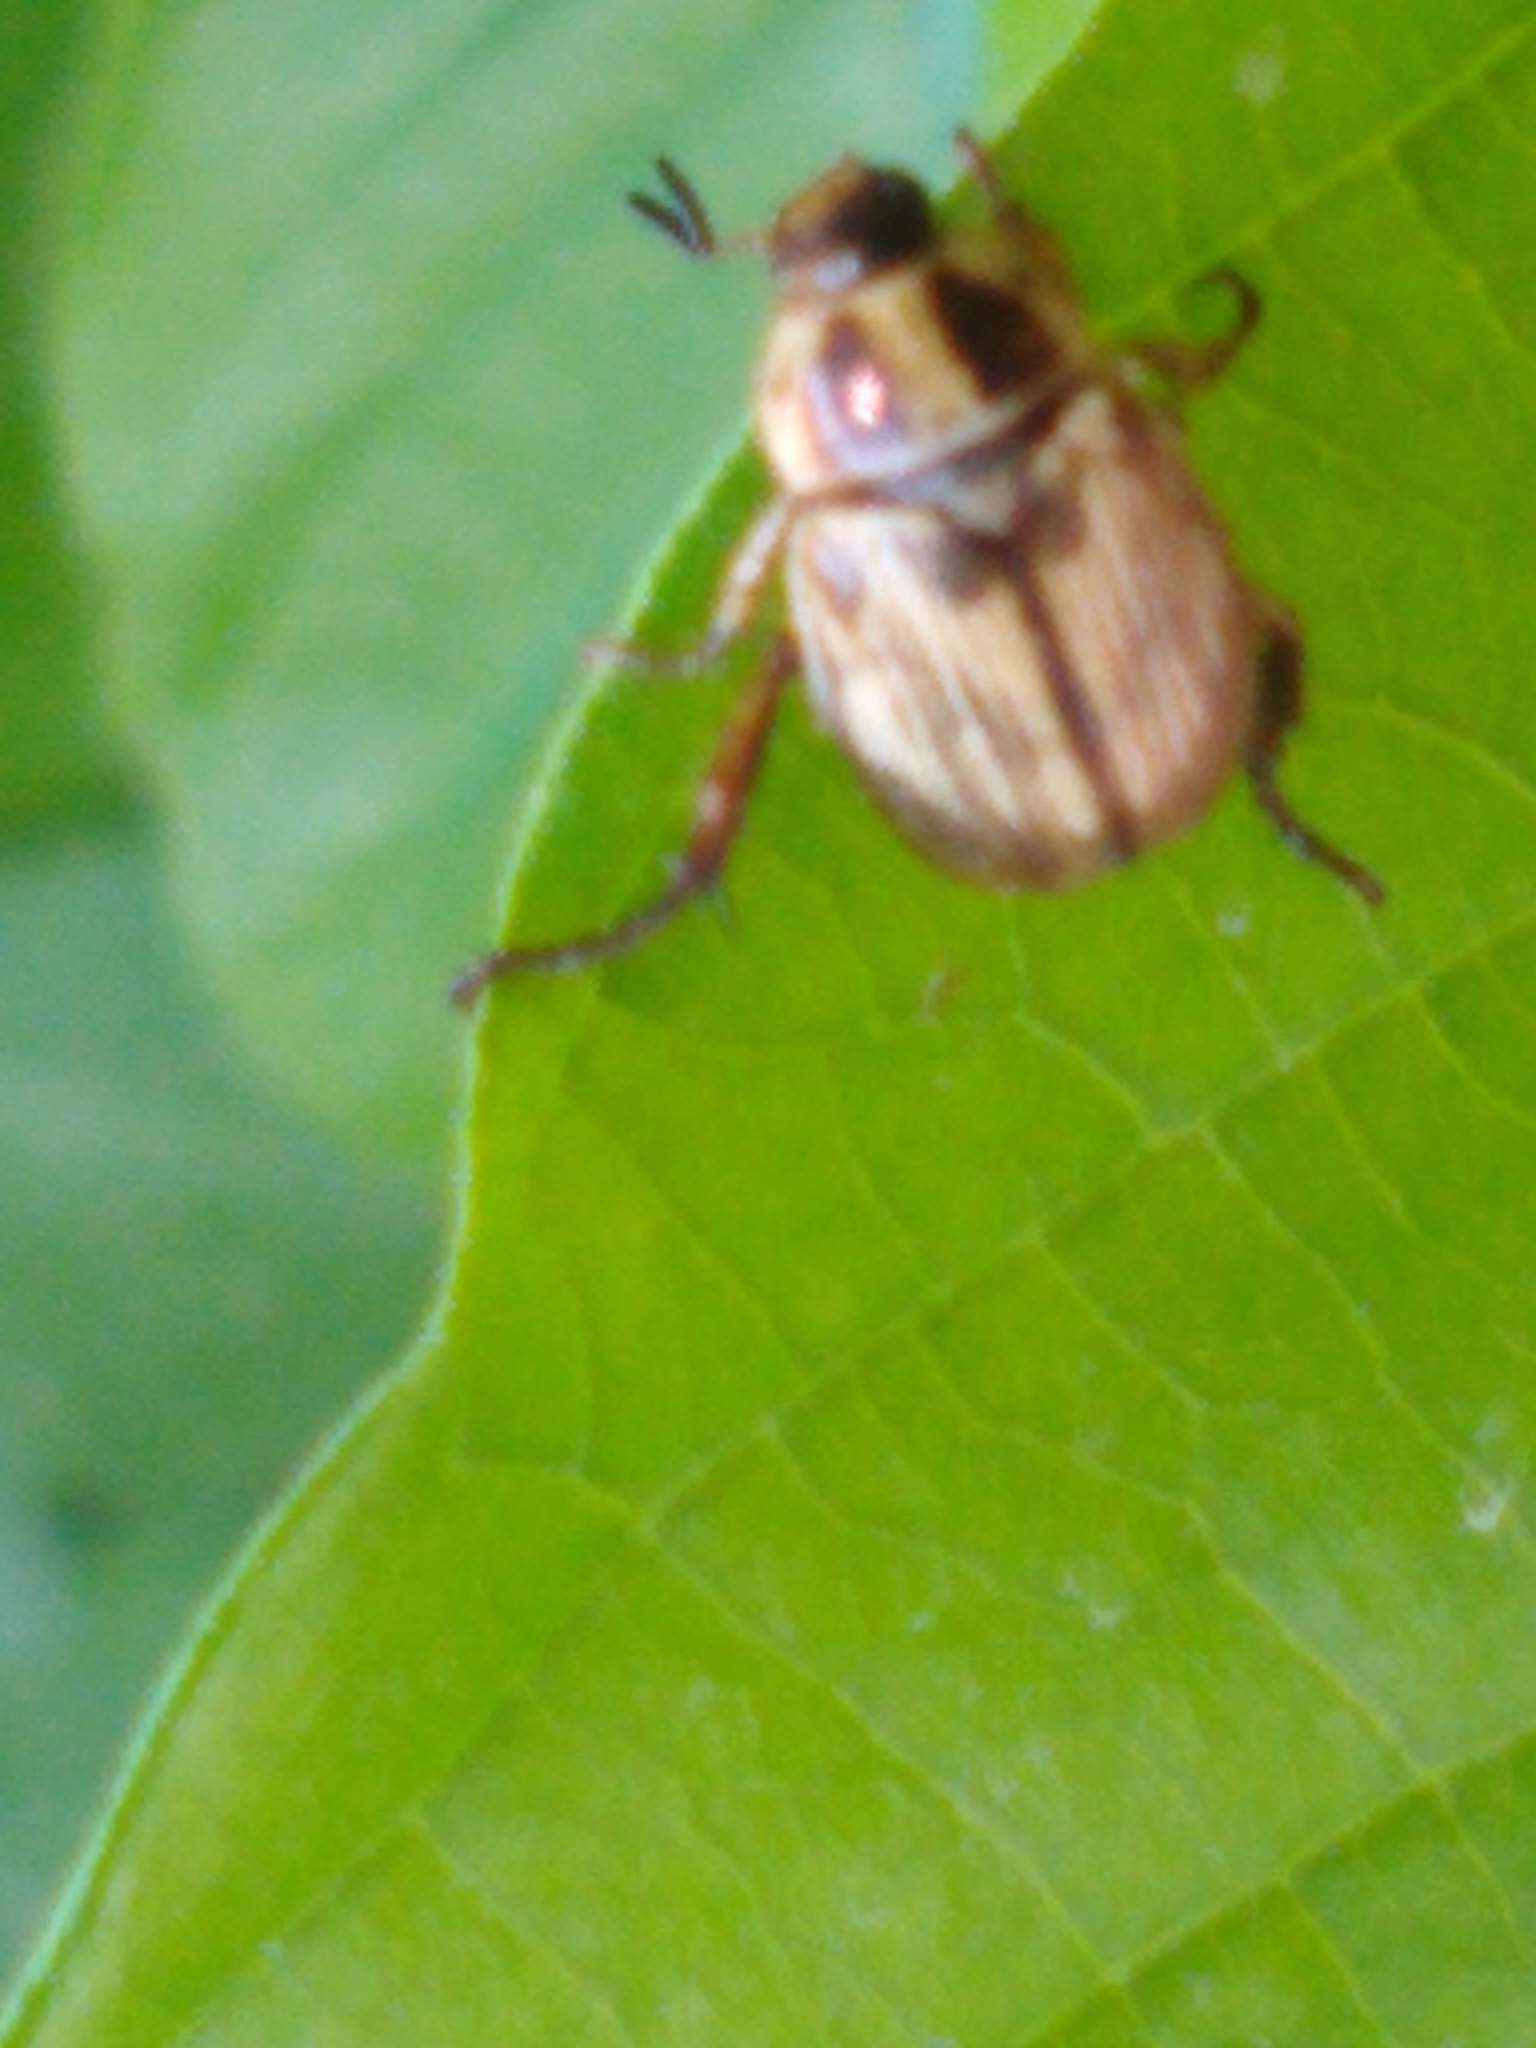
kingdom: Animalia
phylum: Arthropoda
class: Insecta
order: Coleoptera
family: Scarabaeidae
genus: Exomala
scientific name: Exomala orientalis
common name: Oriental beetle
